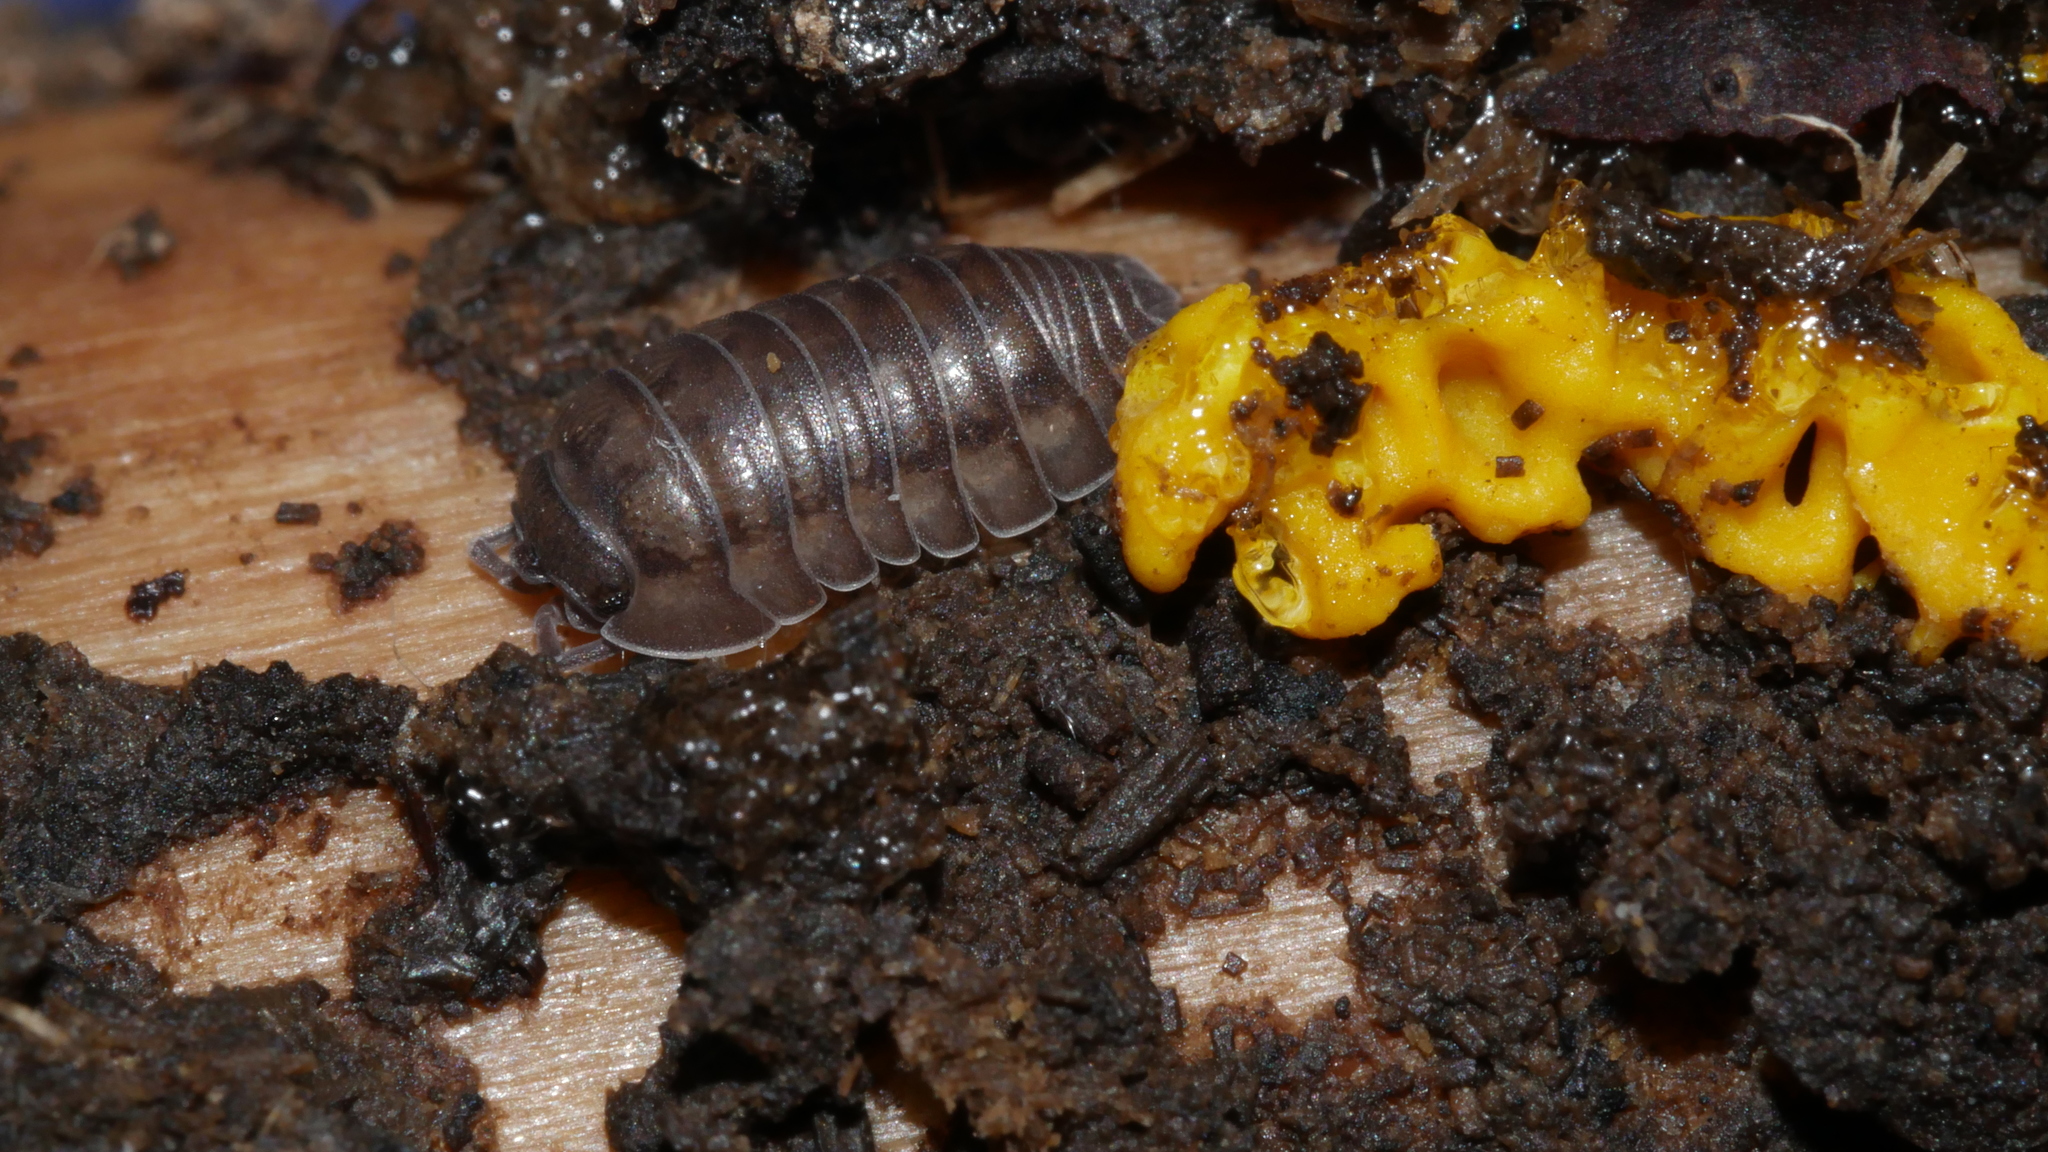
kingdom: Animalia
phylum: Arthropoda
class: Malacostraca
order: Isopoda
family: Armadillidiidae
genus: Armadillidium
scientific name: Armadillidium nasatum
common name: Isopod
